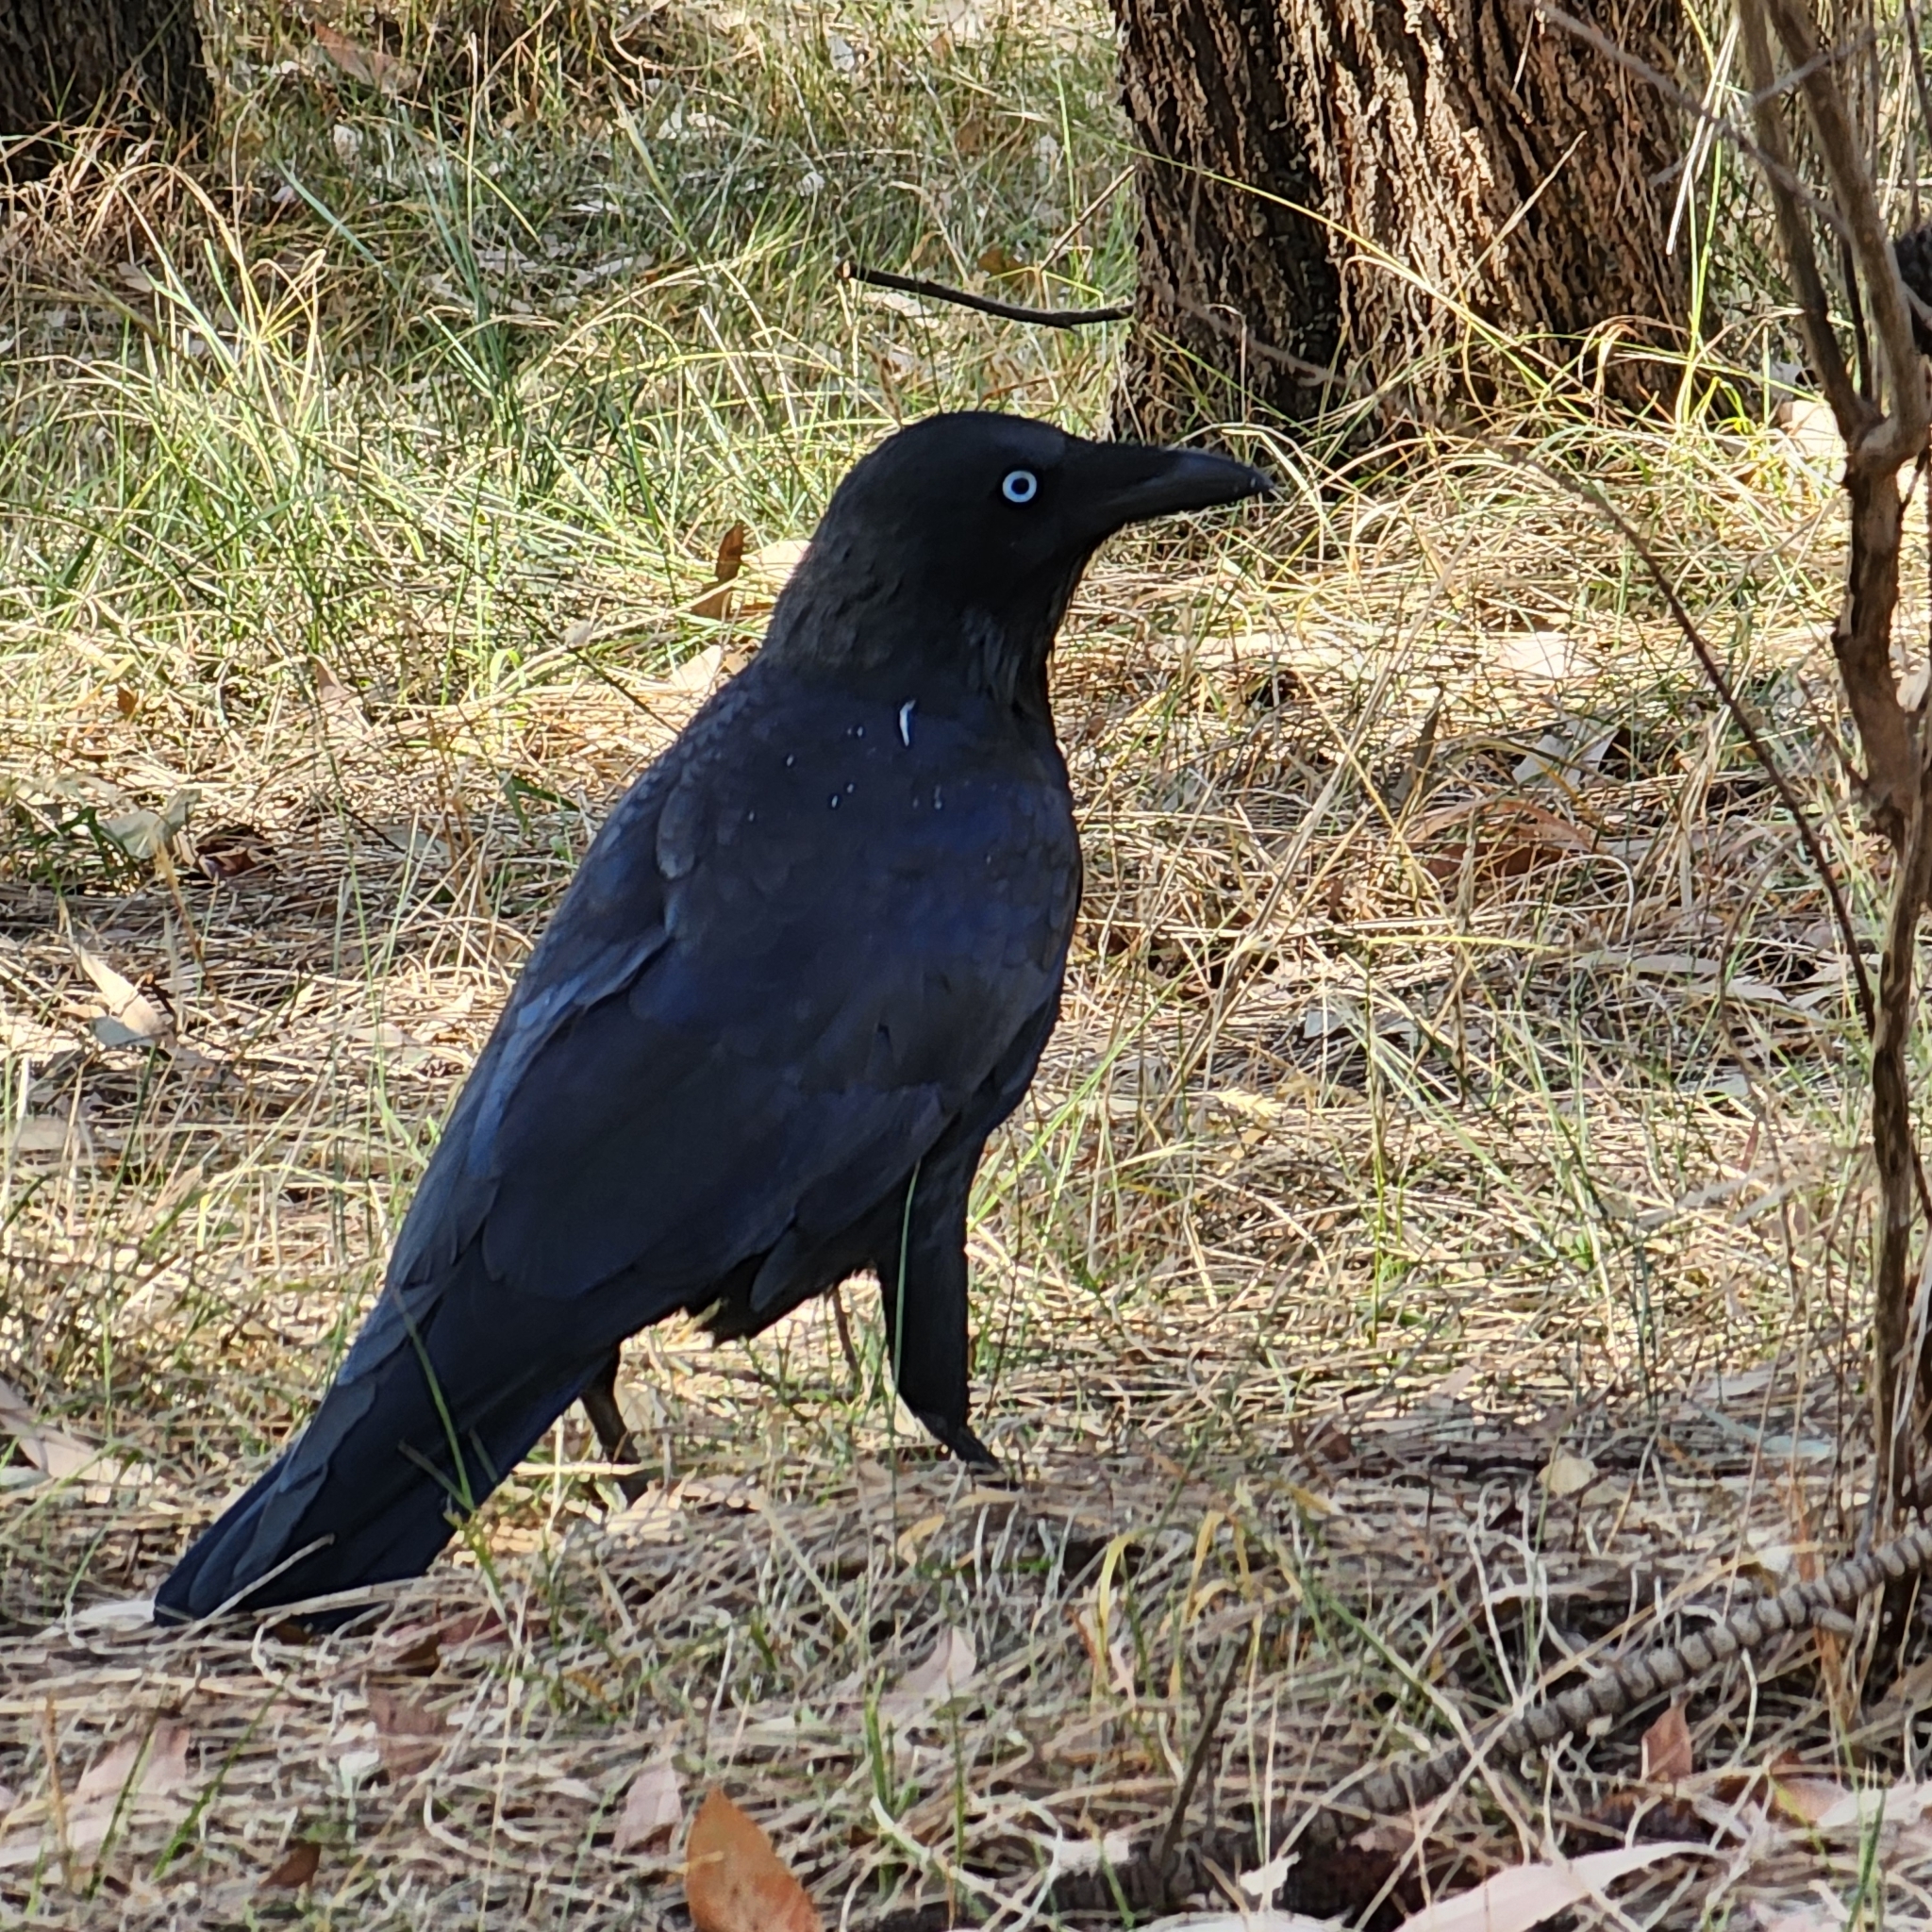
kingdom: Animalia
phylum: Chordata
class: Aves
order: Passeriformes
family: Corvidae
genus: Corvus
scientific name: Corvus mellori
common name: Little raven
